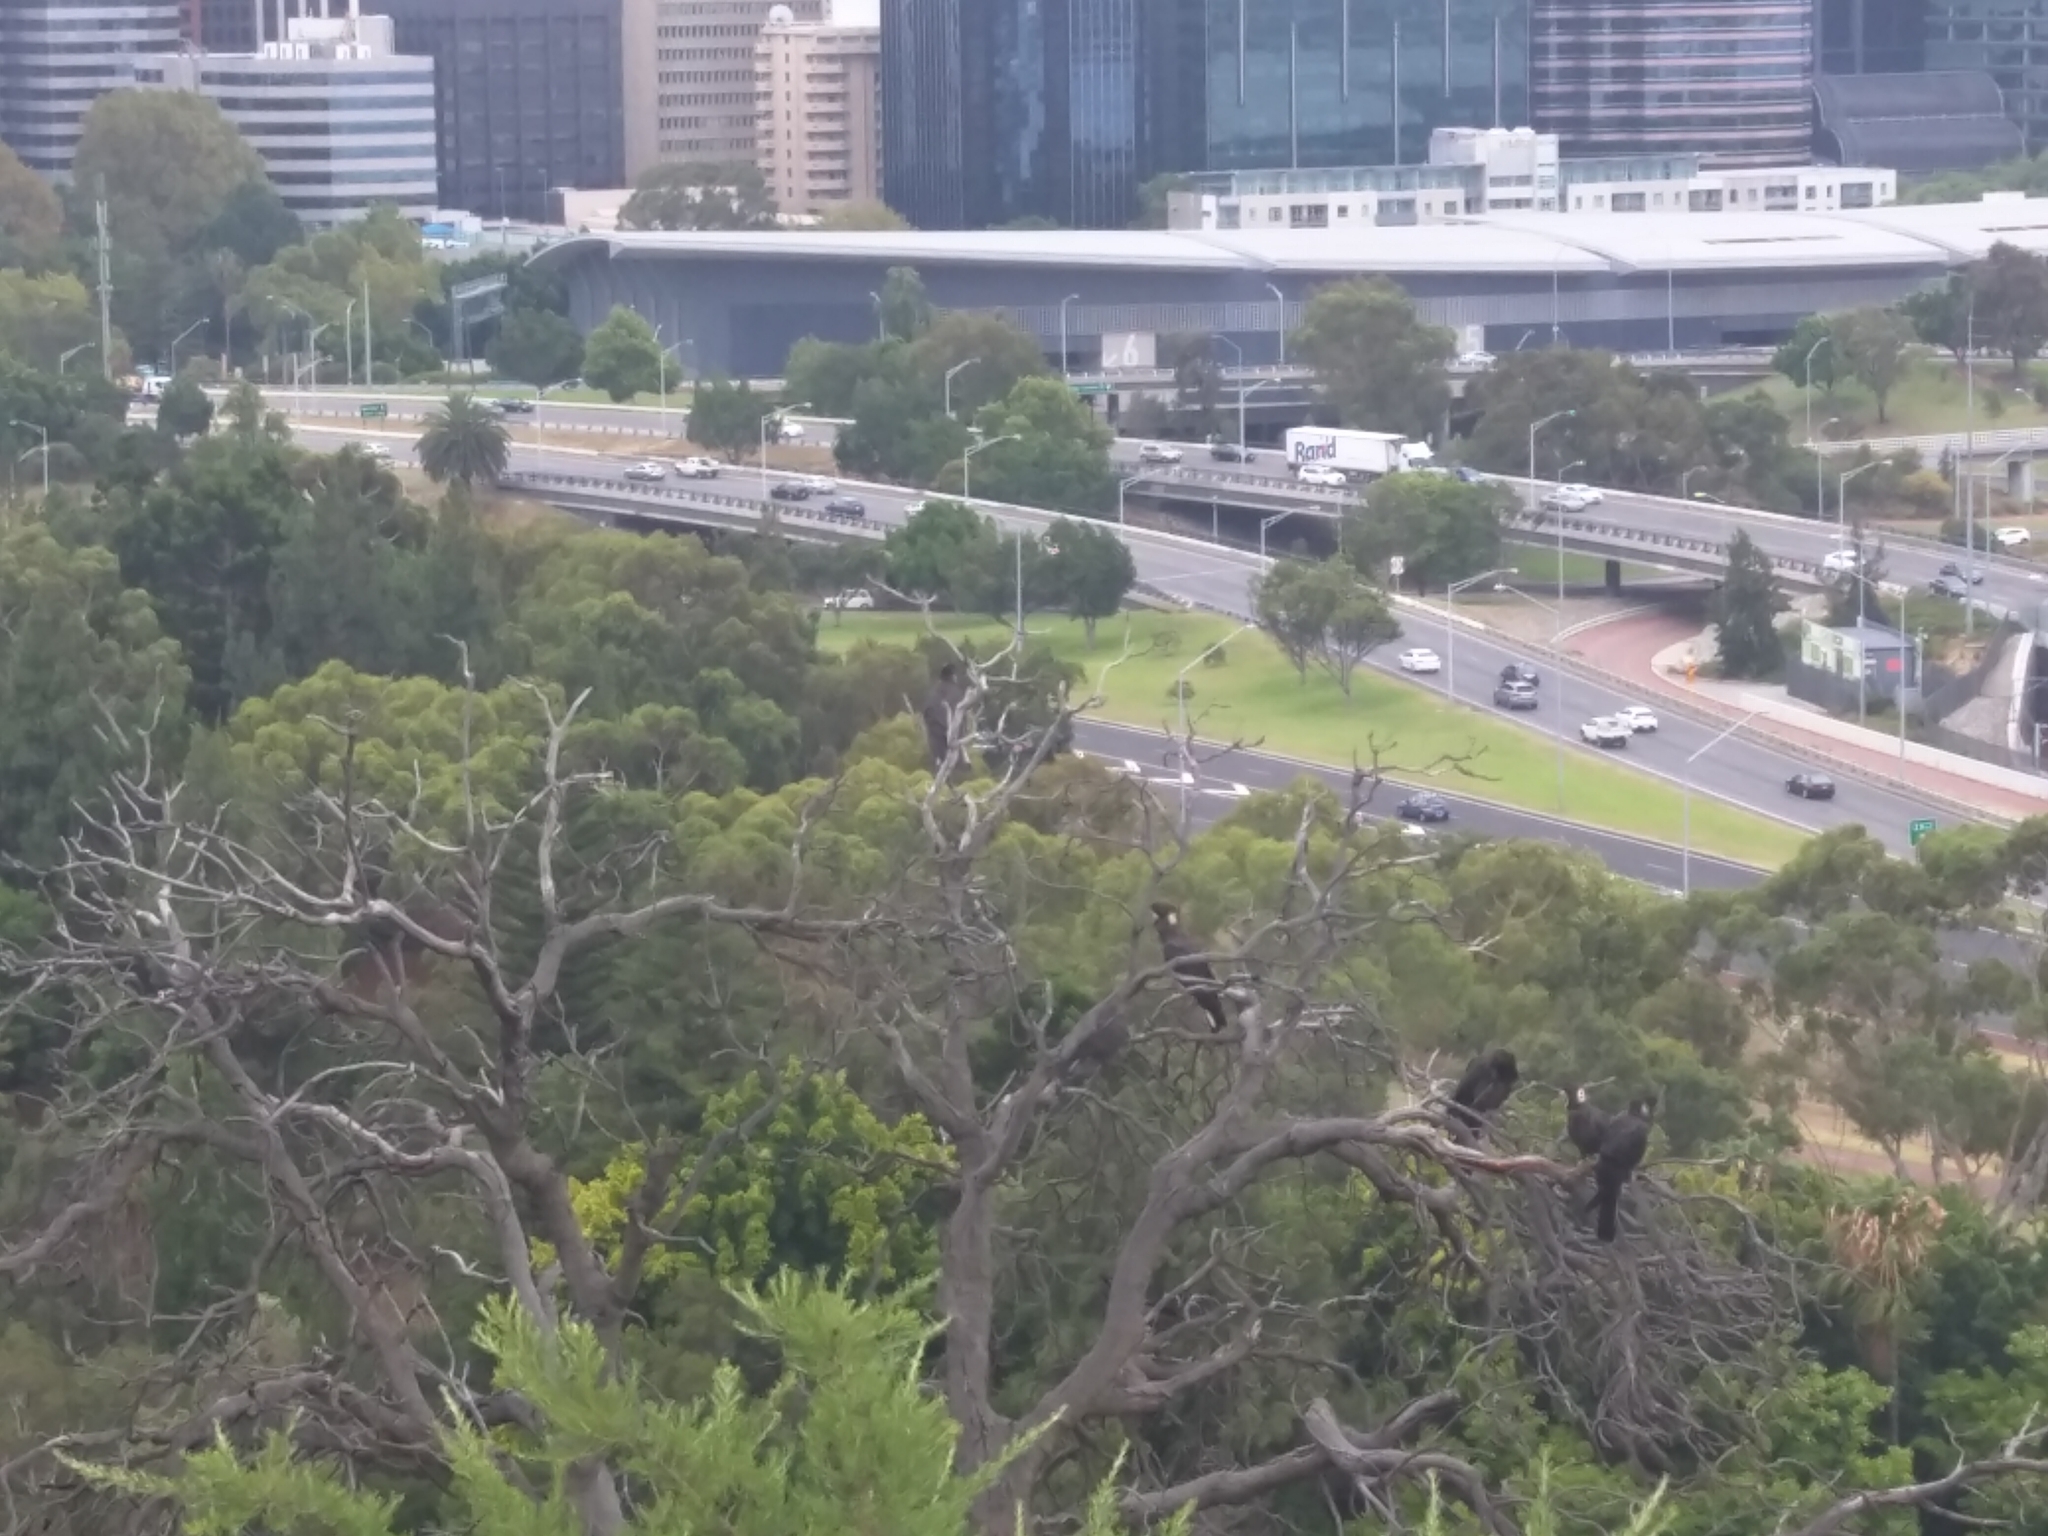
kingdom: Animalia
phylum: Chordata
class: Aves
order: Psittaciformes
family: Cacatuidae
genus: Zanda
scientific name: Zanda latirostris
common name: Short-billed black-cockatoo
